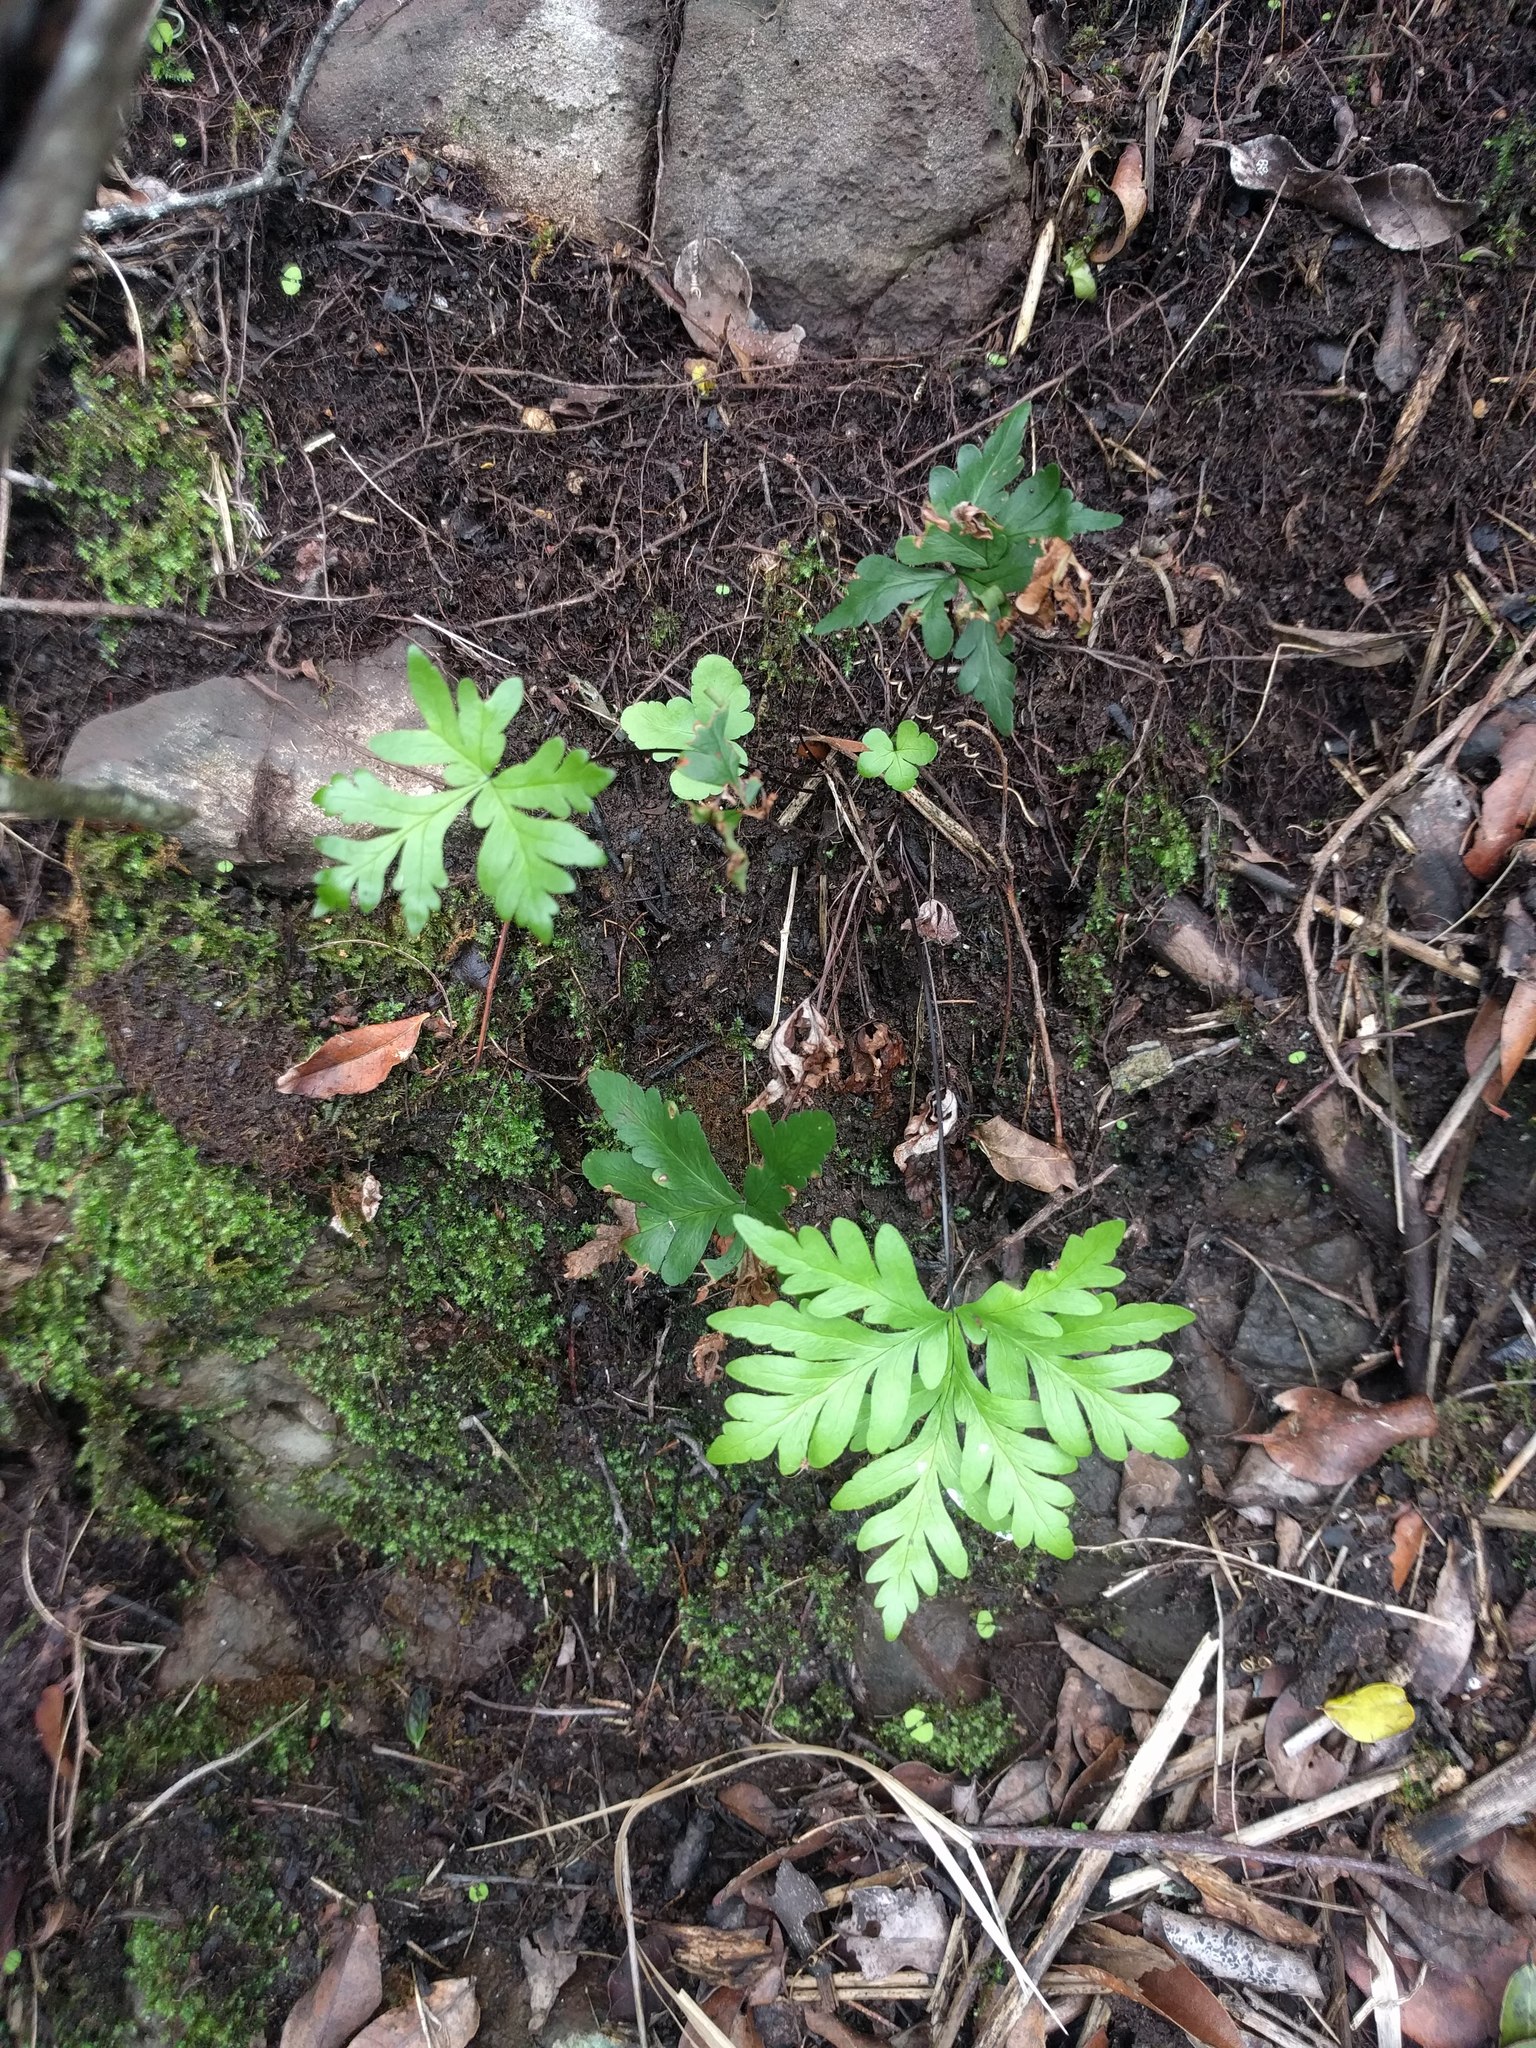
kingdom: Plantae
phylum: Tracheophyta
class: Polypodiopsida
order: Polypodiales
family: Pteridaceae
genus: Doryopteris
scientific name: Doryopteris decipiens
